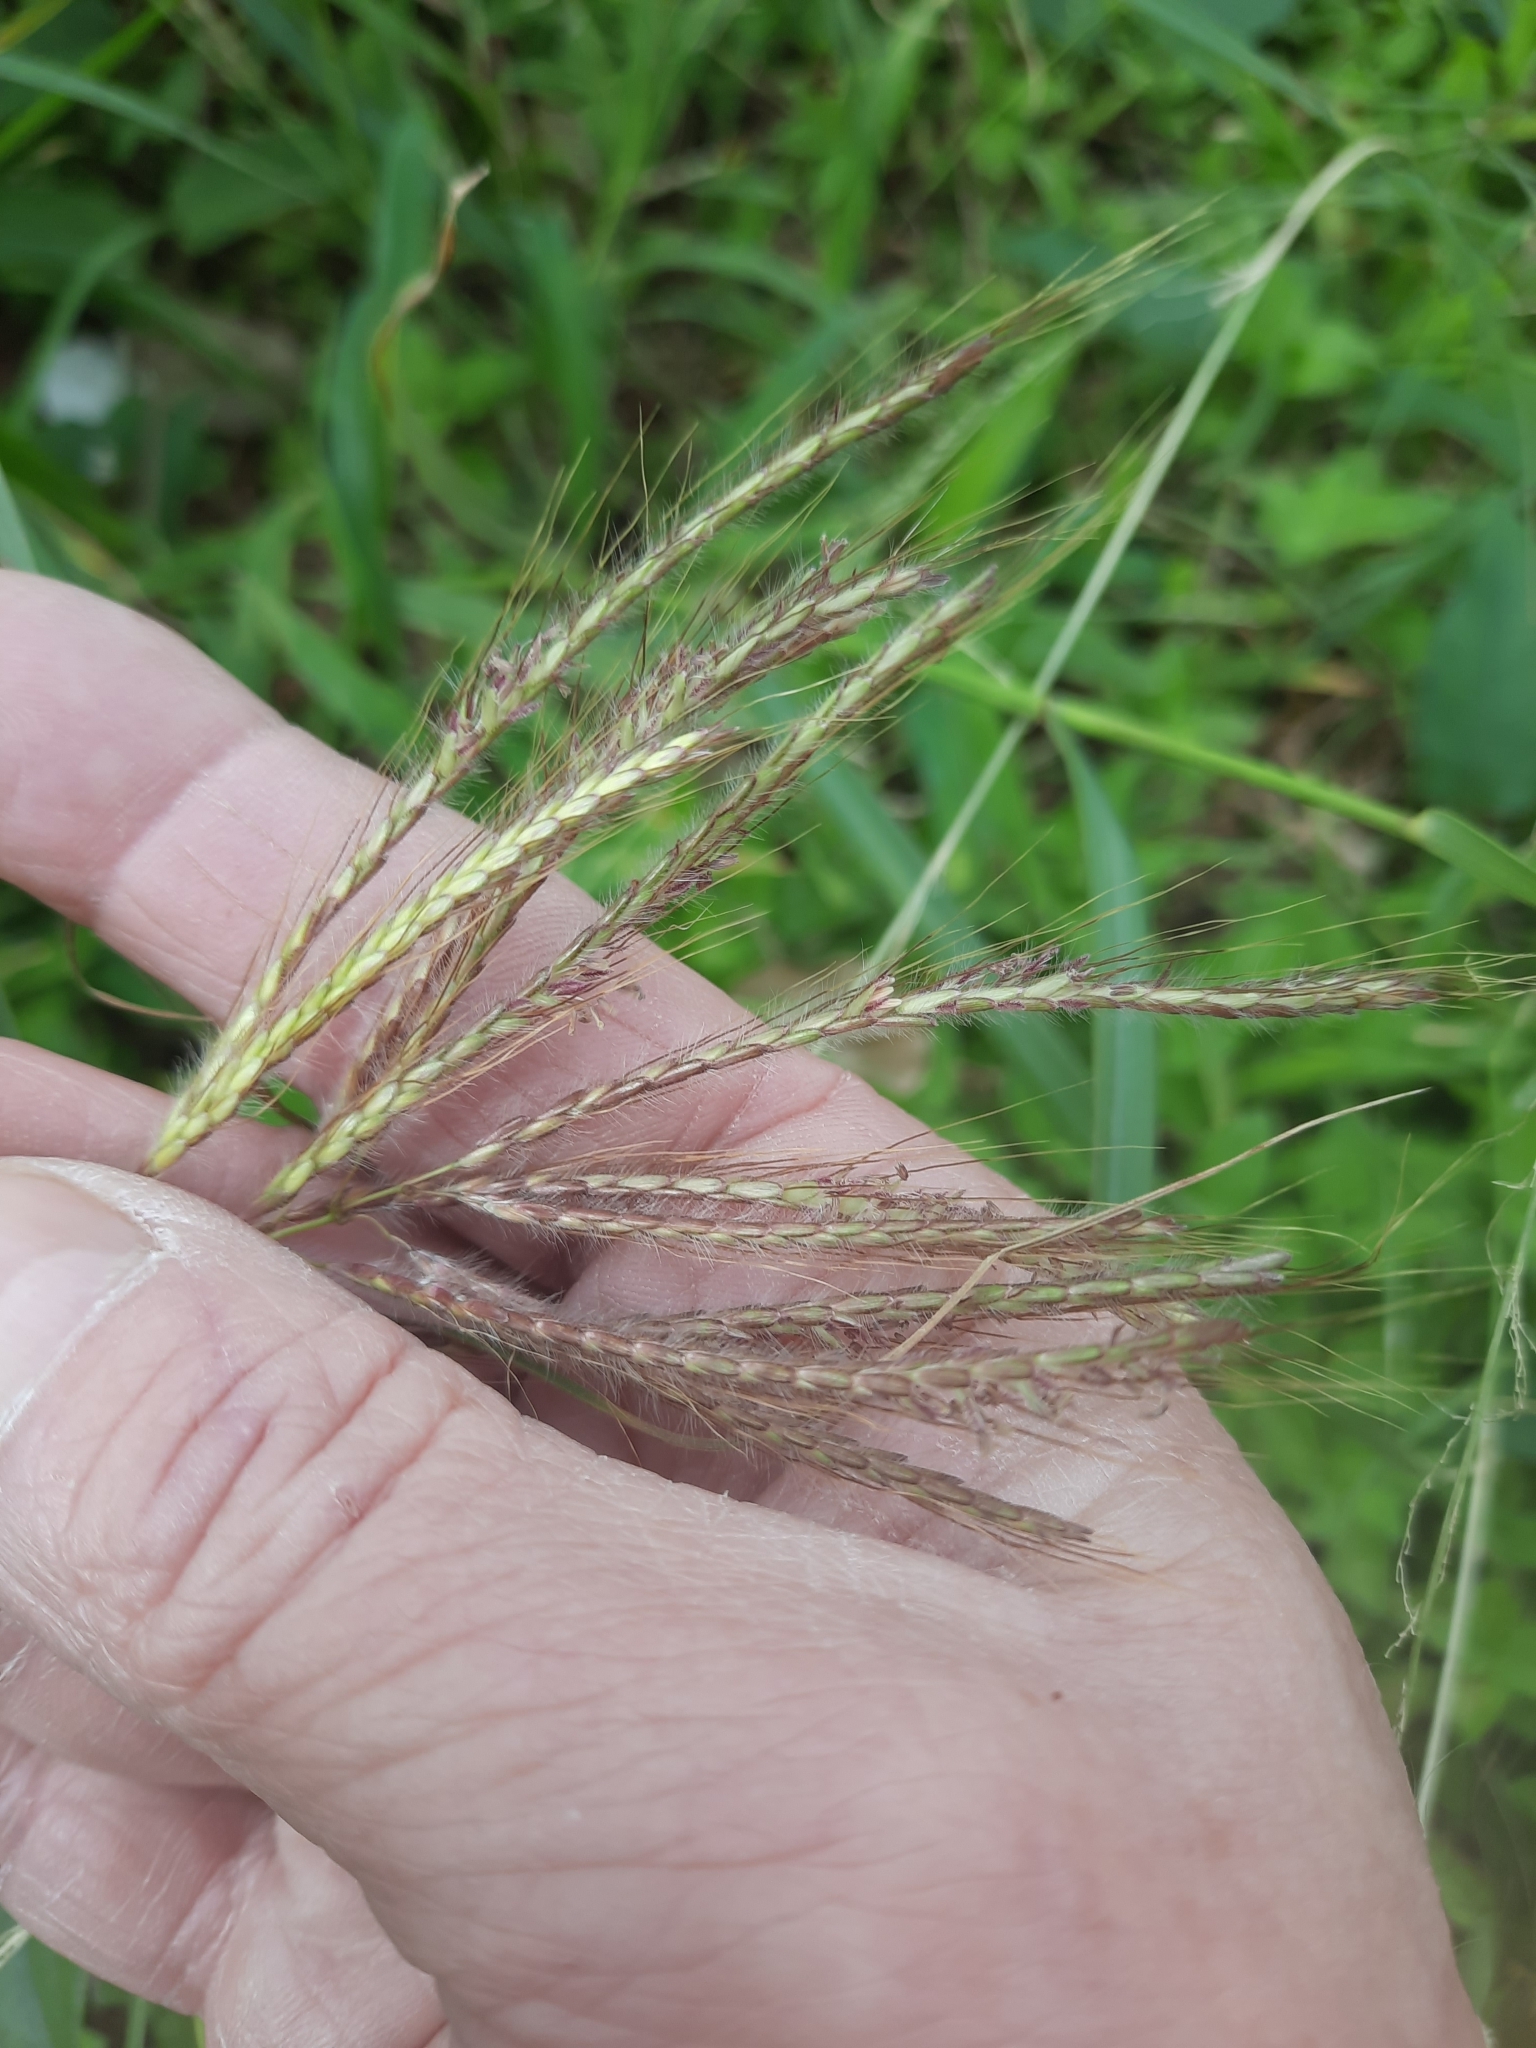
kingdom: Plantae
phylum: Tracheophyta
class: Liliopsida
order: Poales
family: Poaceae
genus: Dichanthium
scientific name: Dichanthium annulatum
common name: Kleberg's bluestem
